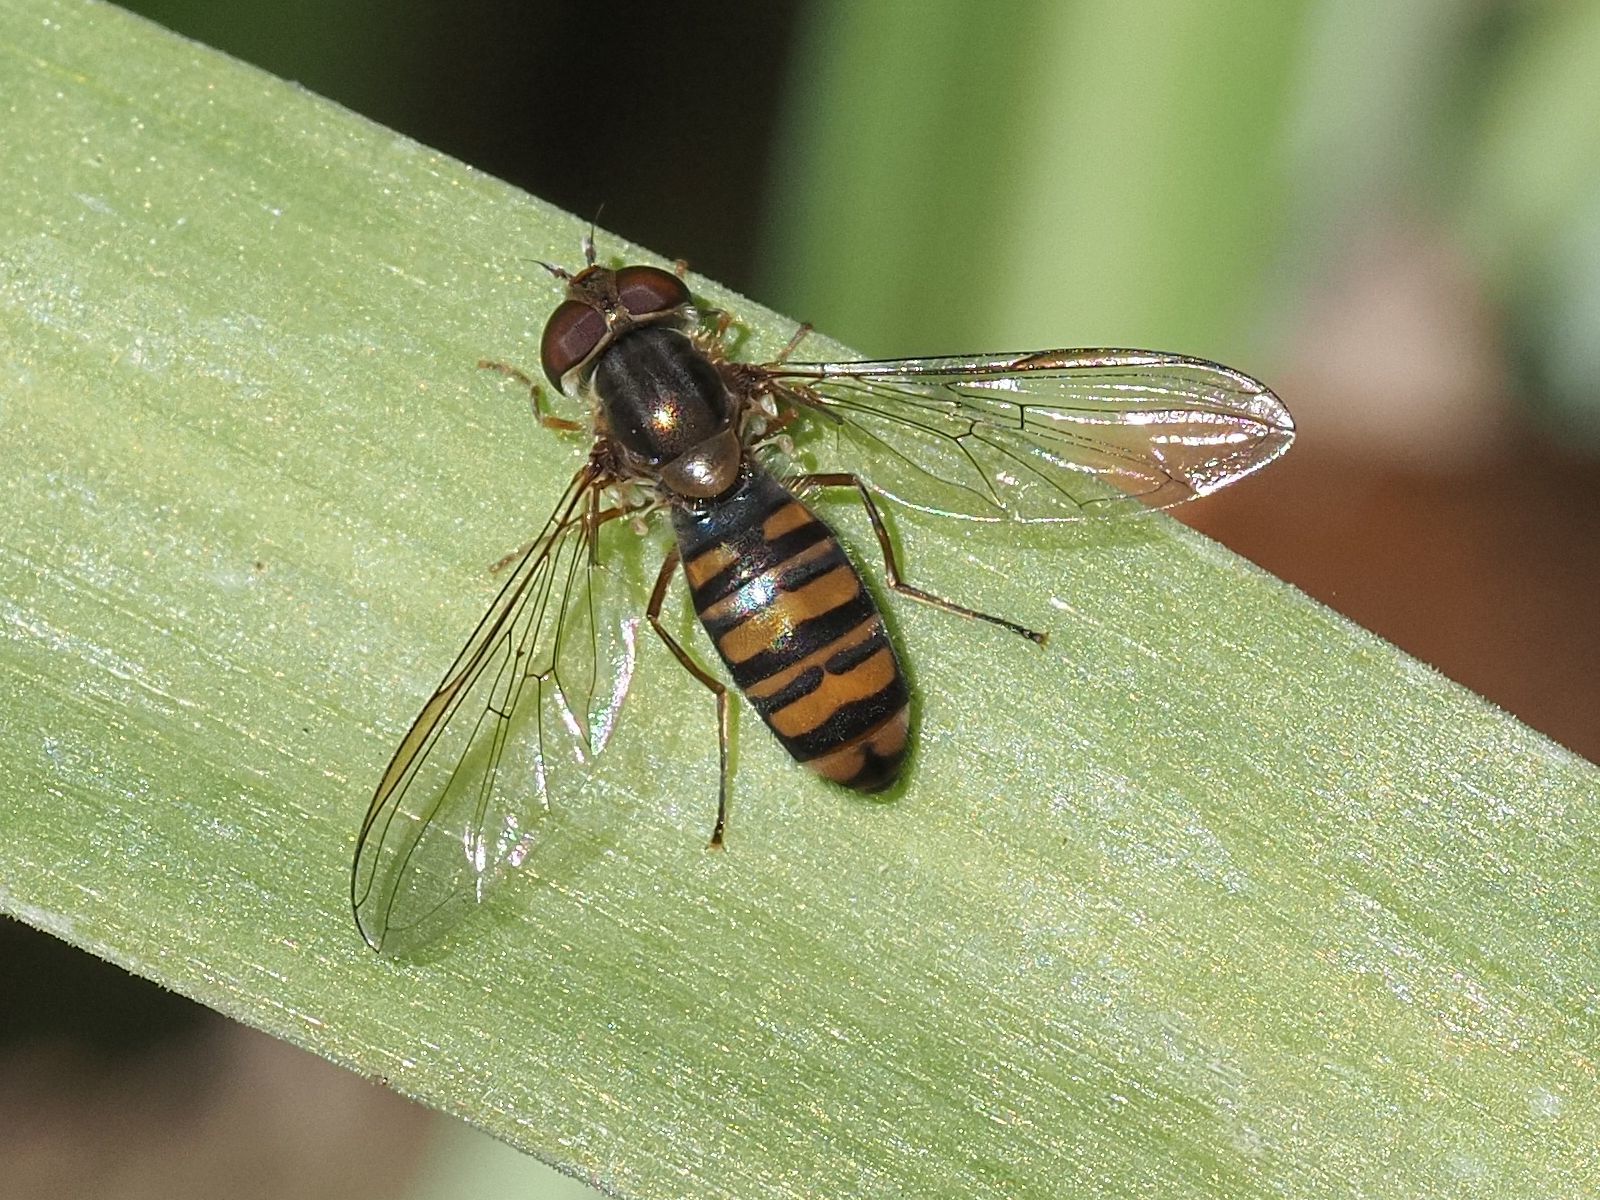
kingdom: Animalia
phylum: Arthropoda
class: Insecta
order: Diptera
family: Syrphidae
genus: Episyrphus
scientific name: Episyrphus balteatus
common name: Marmalade hoverfly
